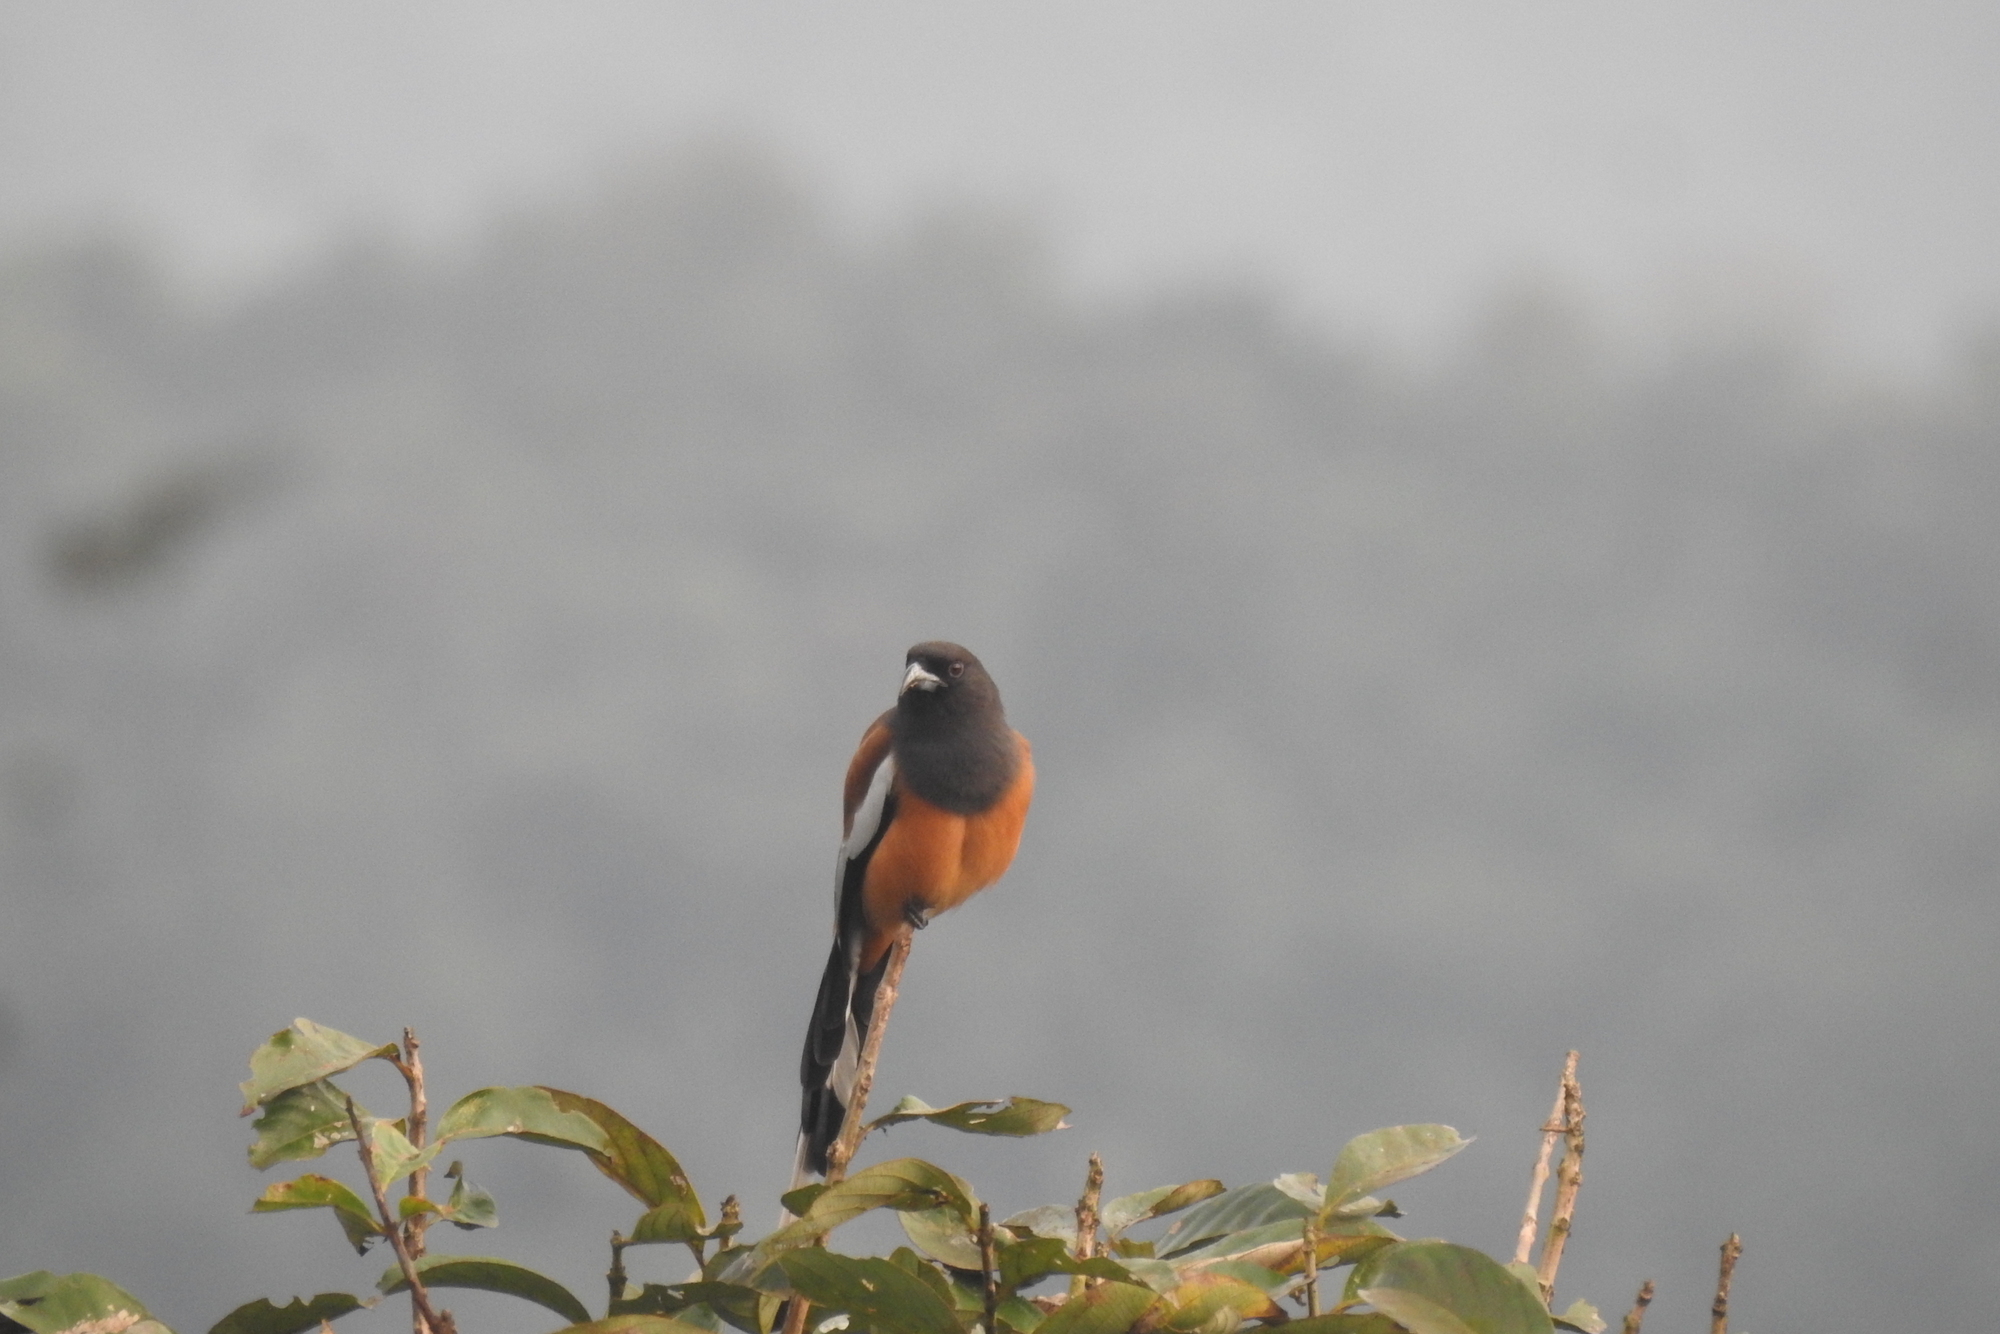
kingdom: Animalia
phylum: Chordata
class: Aves
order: Passeriformes
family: Corvidae
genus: Dendrocitta
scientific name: Dendrocitta vagabunda
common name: Rufous treepie
